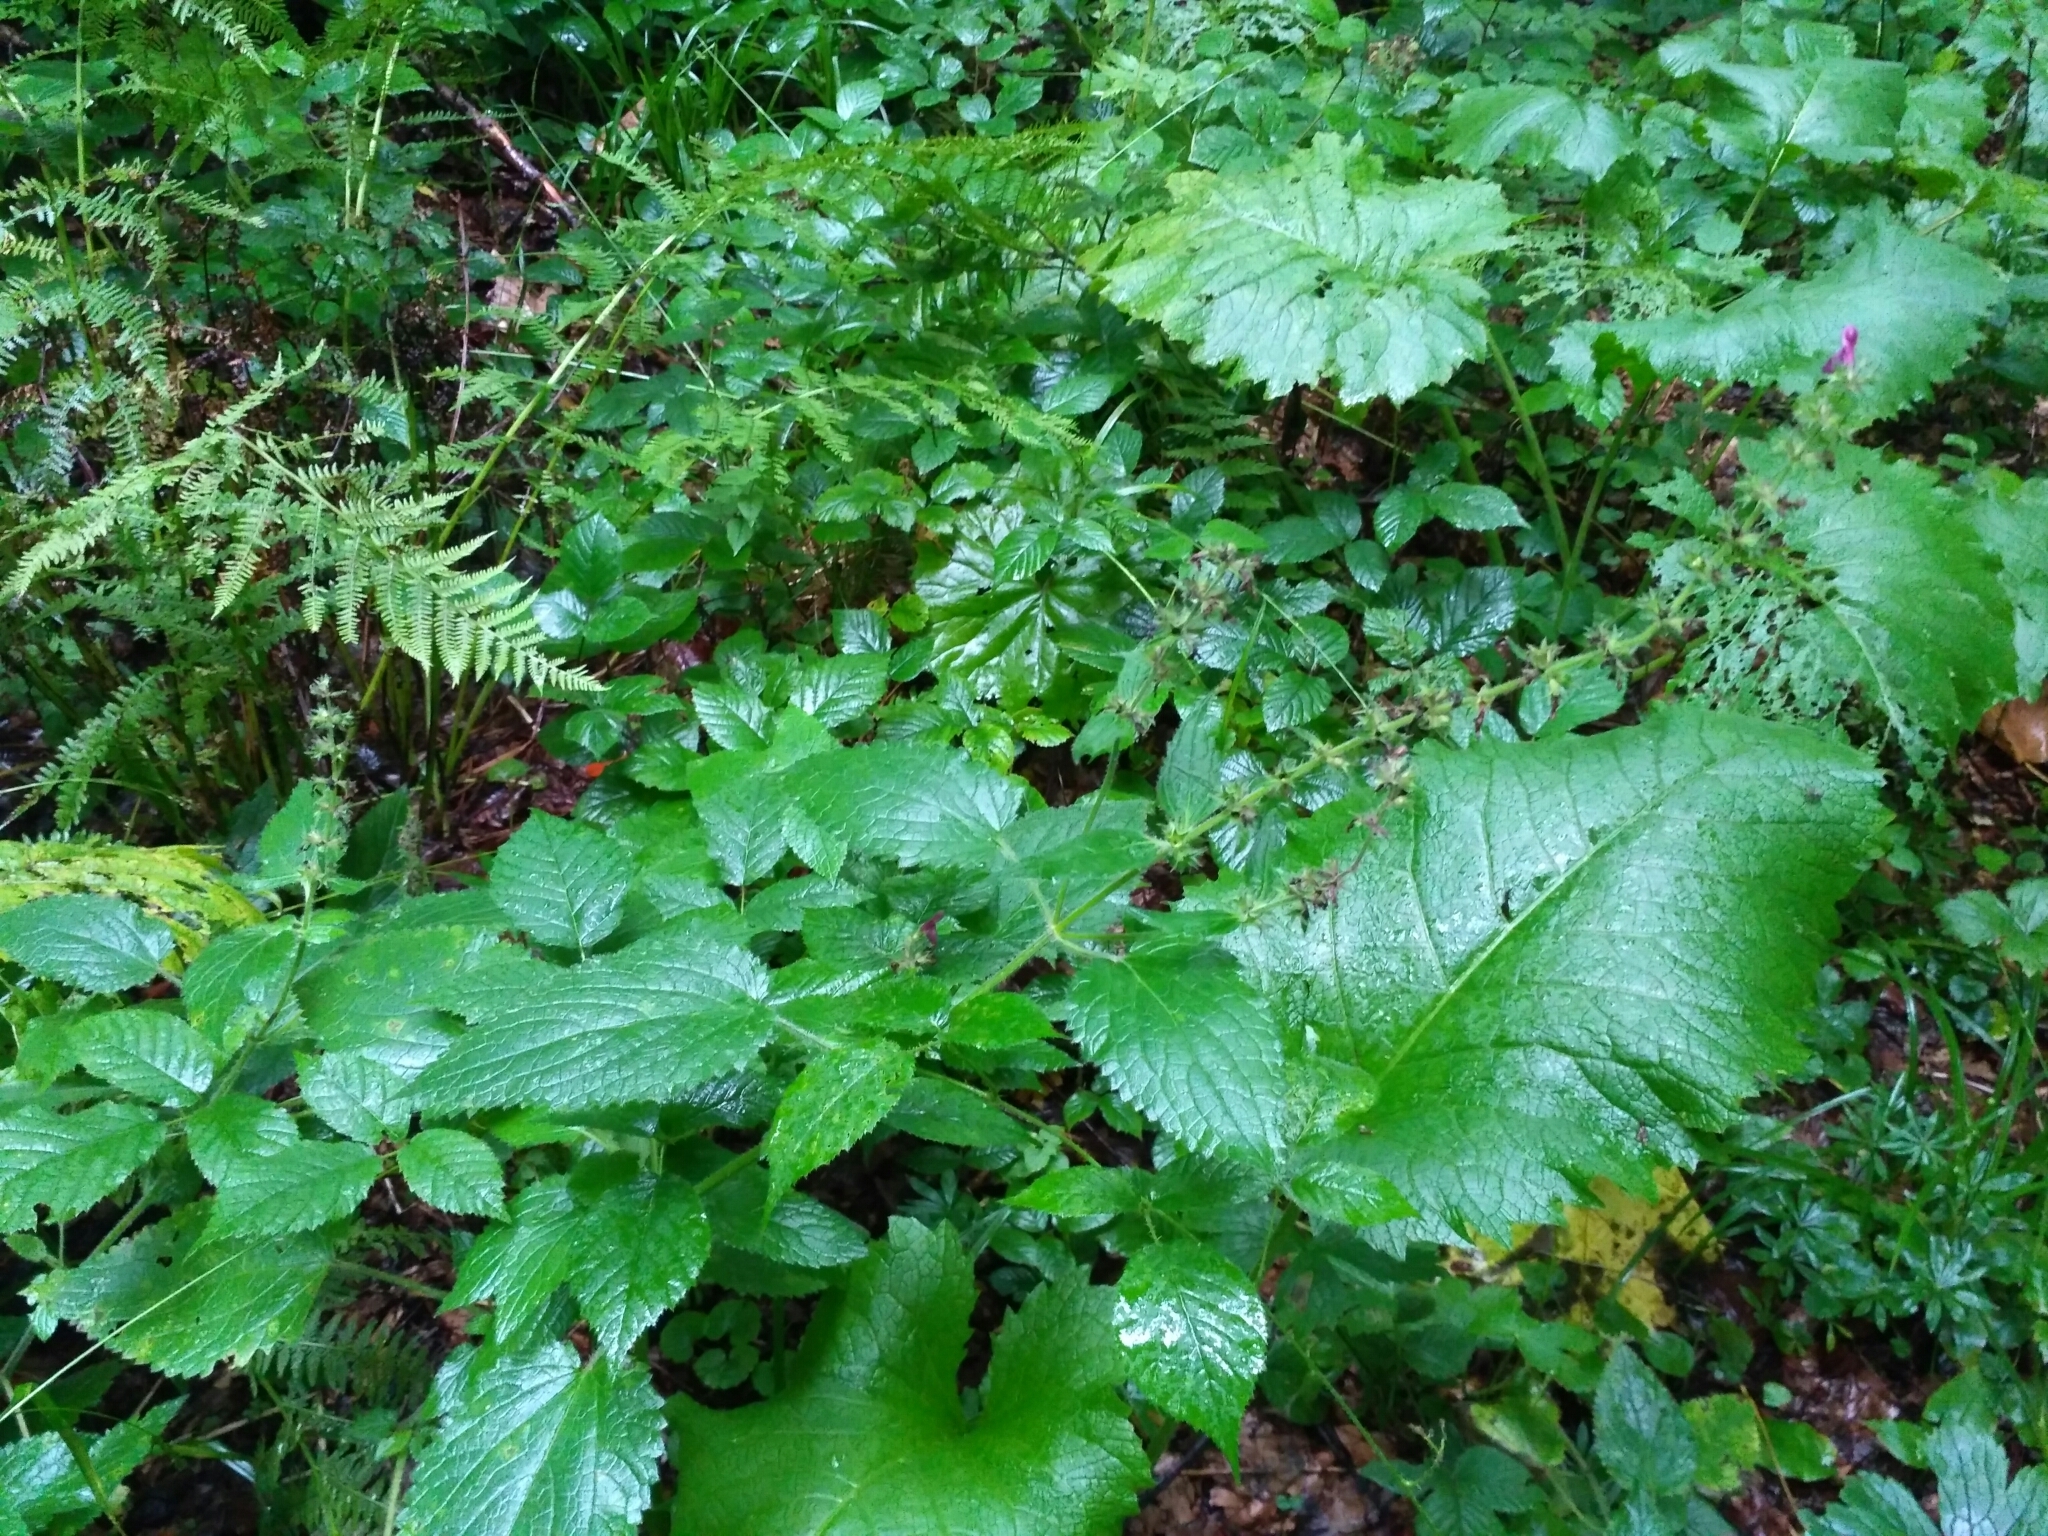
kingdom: Plantae
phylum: Tracheophyta
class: Magnoliopsida
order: Lamiales
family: Lamiaceae
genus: Stachys
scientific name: Stachys sylvatica
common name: Hedge woundwort
